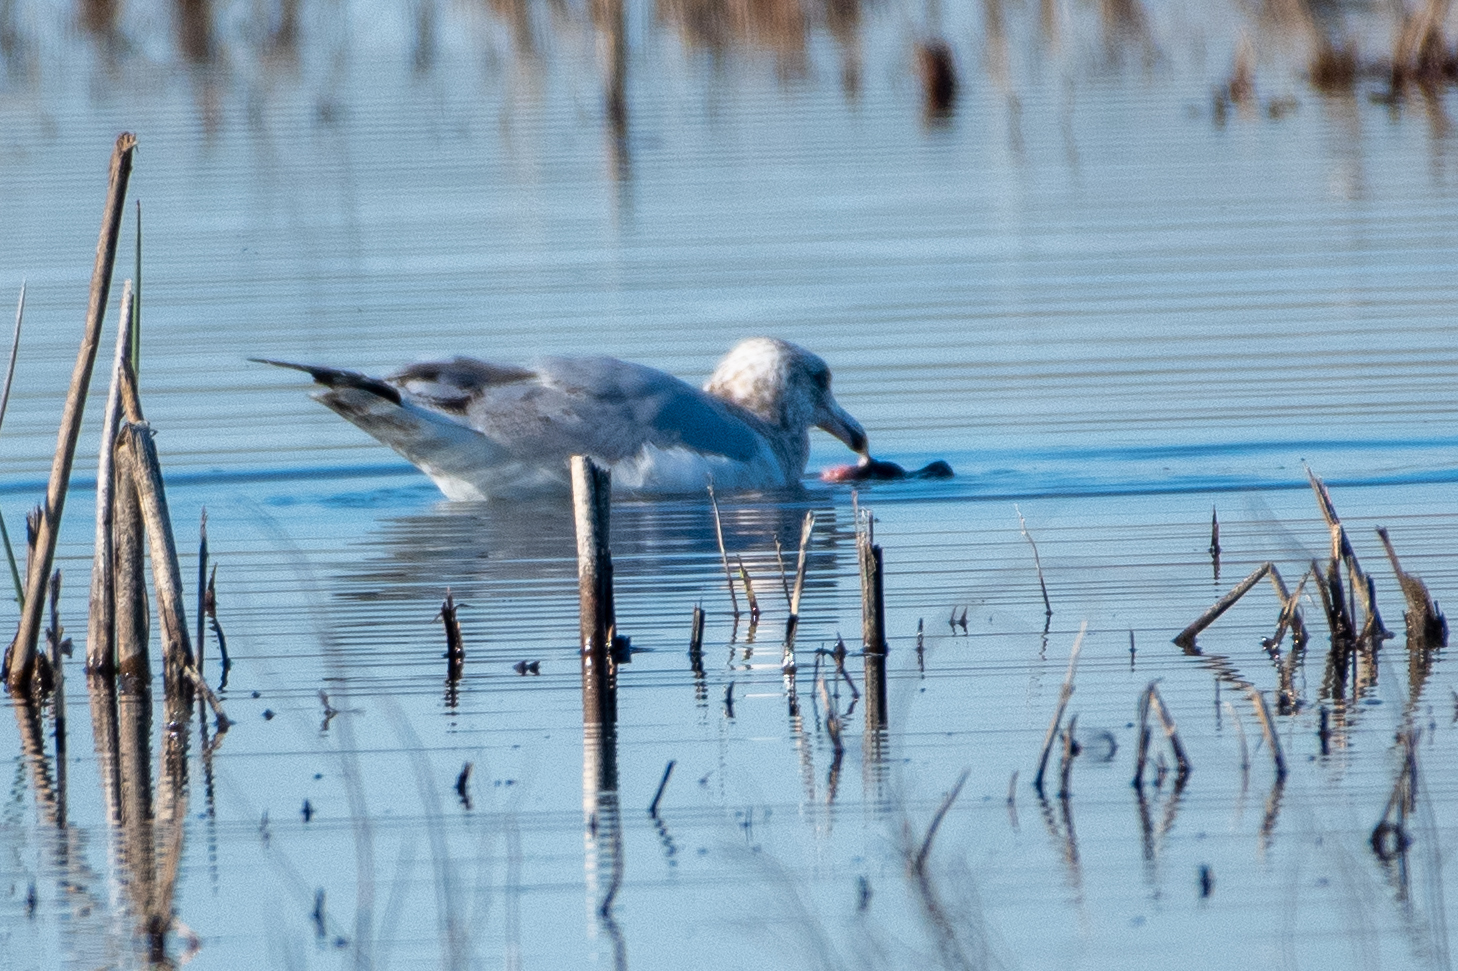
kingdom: Animalia
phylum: Chordata
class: Aves
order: Charadriiformes
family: Laridae
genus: Larus
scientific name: Larus argentatus
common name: Herring gull
